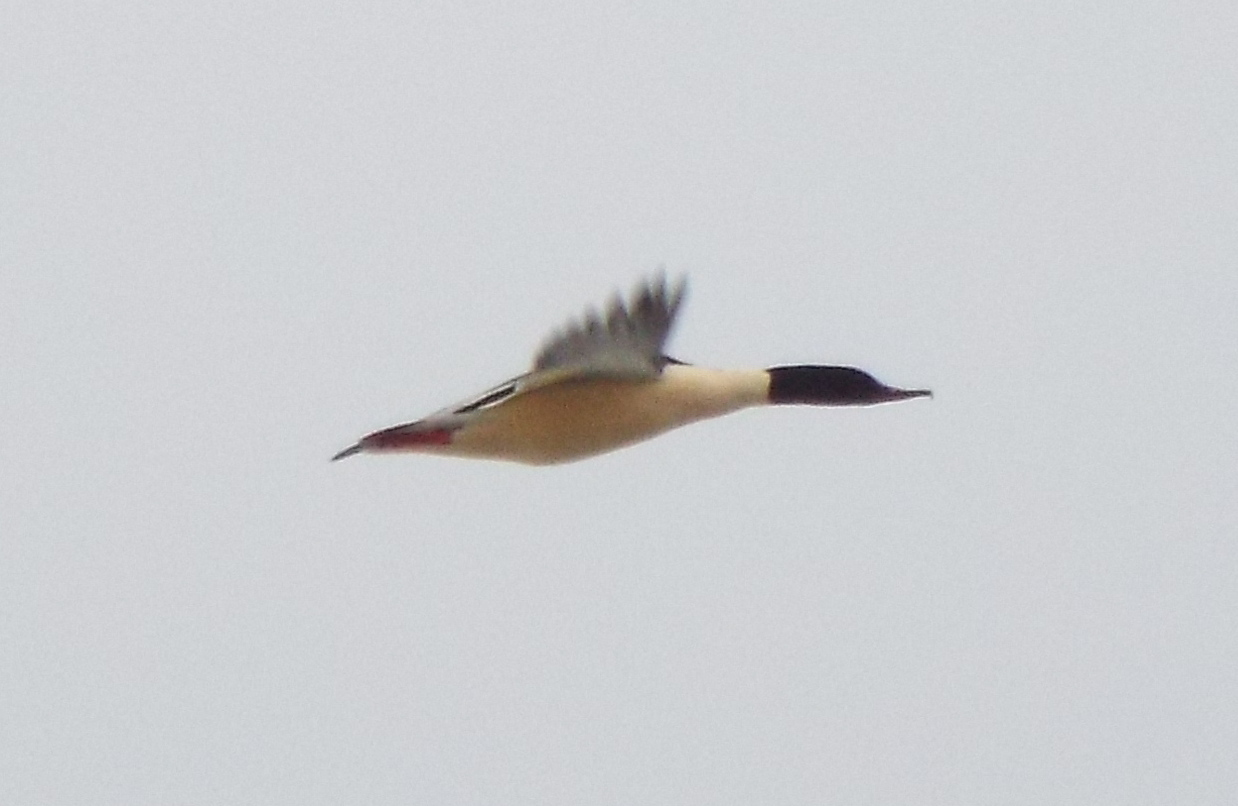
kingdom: Animalia
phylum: Chordata
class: Aves
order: Anseriformes
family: Anatidae
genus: Mergus
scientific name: Mergus merganser
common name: Common merganser
